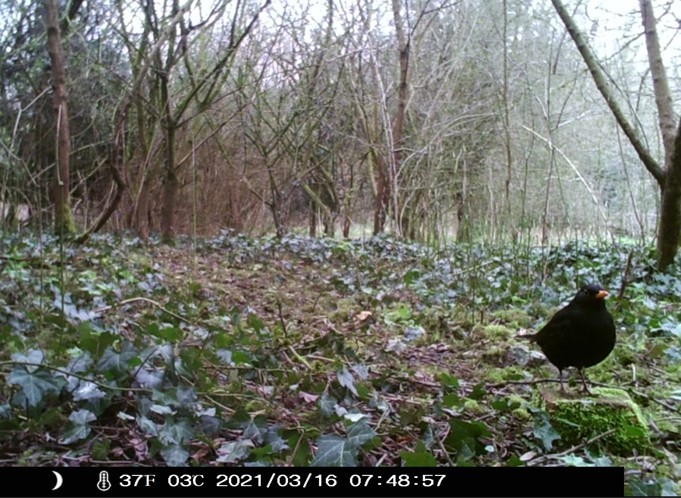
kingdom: Animalia
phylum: Chordata
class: Aves
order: Passeriformes
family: Turdidae
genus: Turdus
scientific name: Turdus merula
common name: Common blackbird
